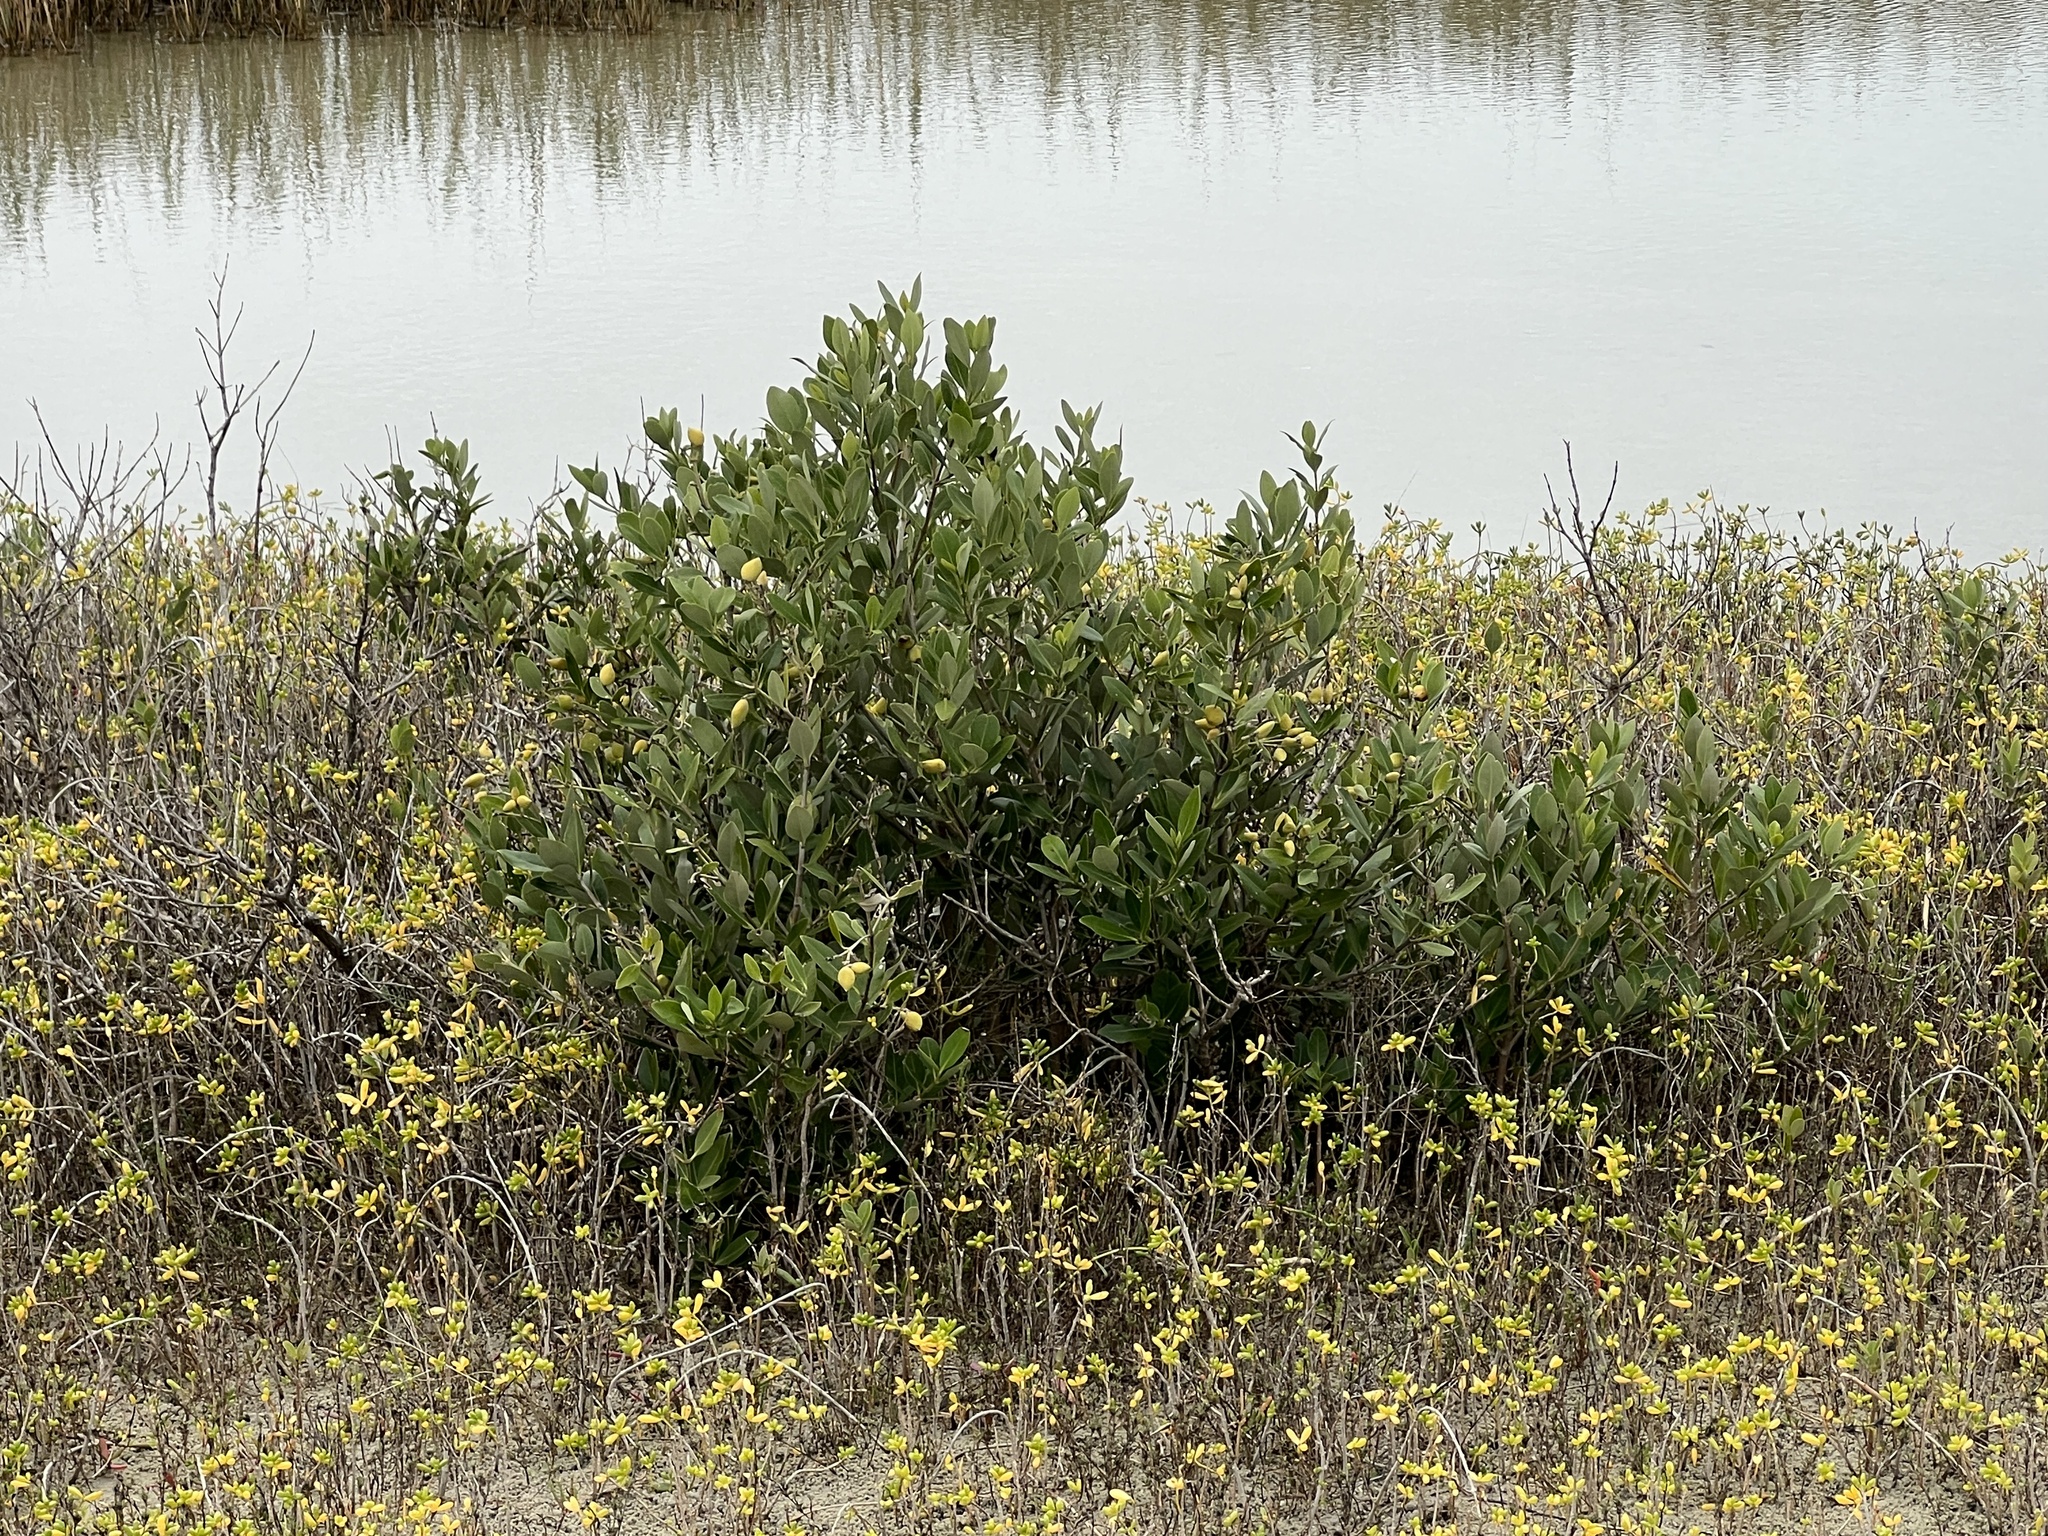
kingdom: Plantae
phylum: Tracheophyta
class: Magnoliopsida
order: Lamiales
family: Acanthaceae
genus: Avicennia
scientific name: Avicennia germinans
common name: Black mangrove
